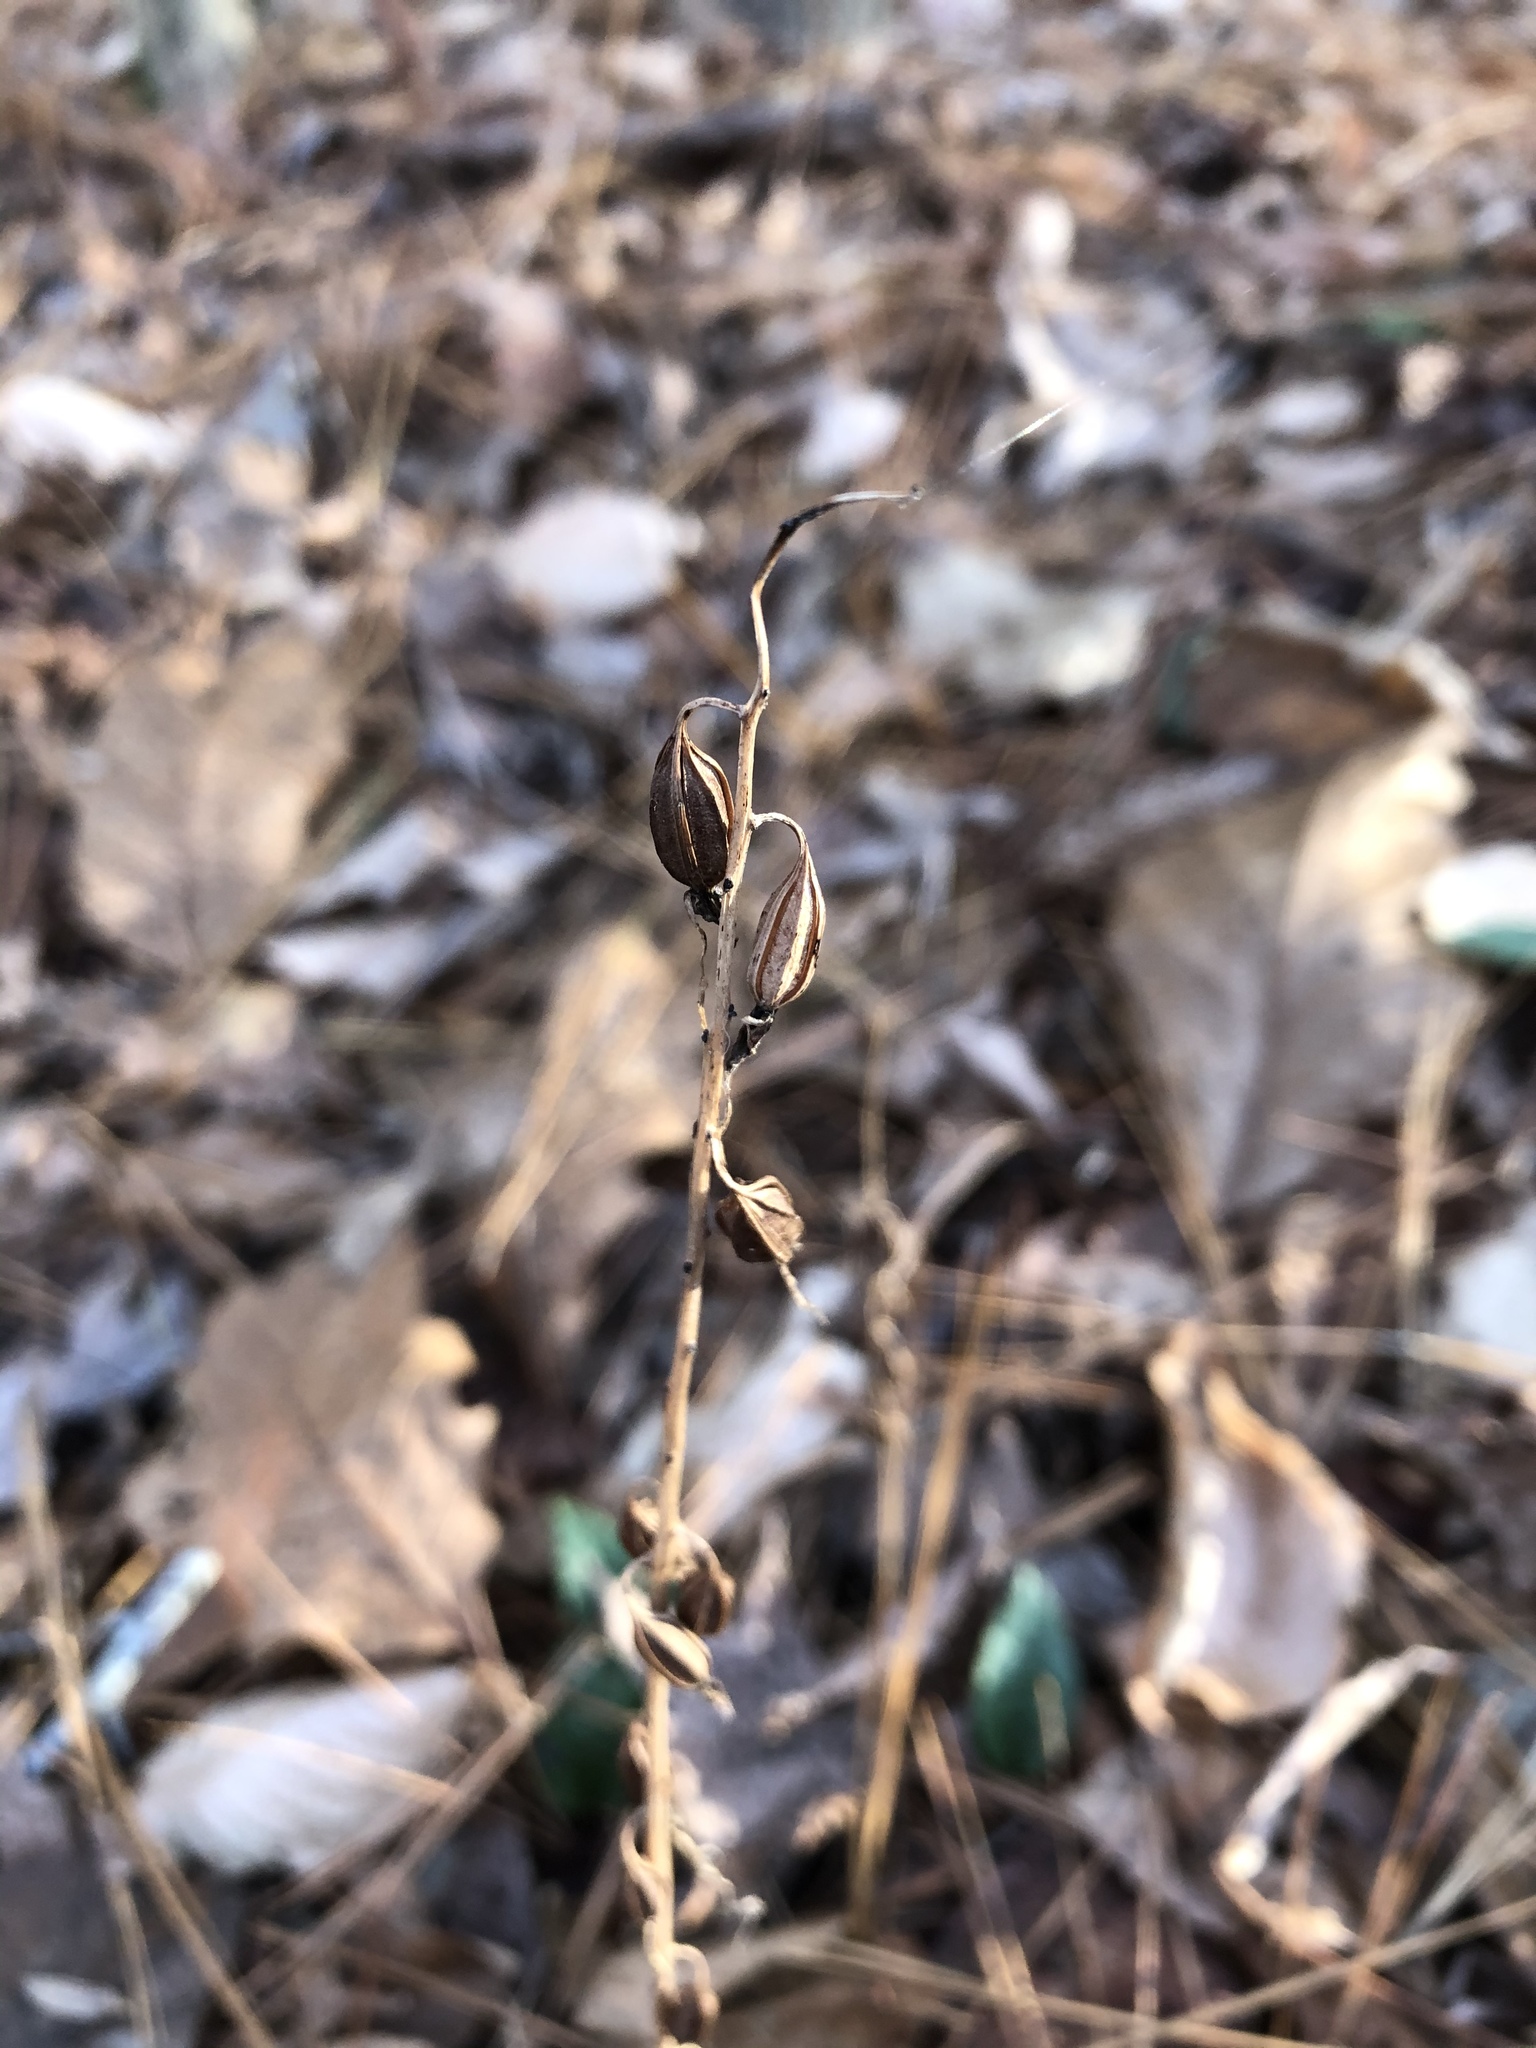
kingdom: Plantae
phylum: Tracheophyta
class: Liliopsida
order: Asparagales
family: Orchidaceae
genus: Tipularia
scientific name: Tipularia discolor
